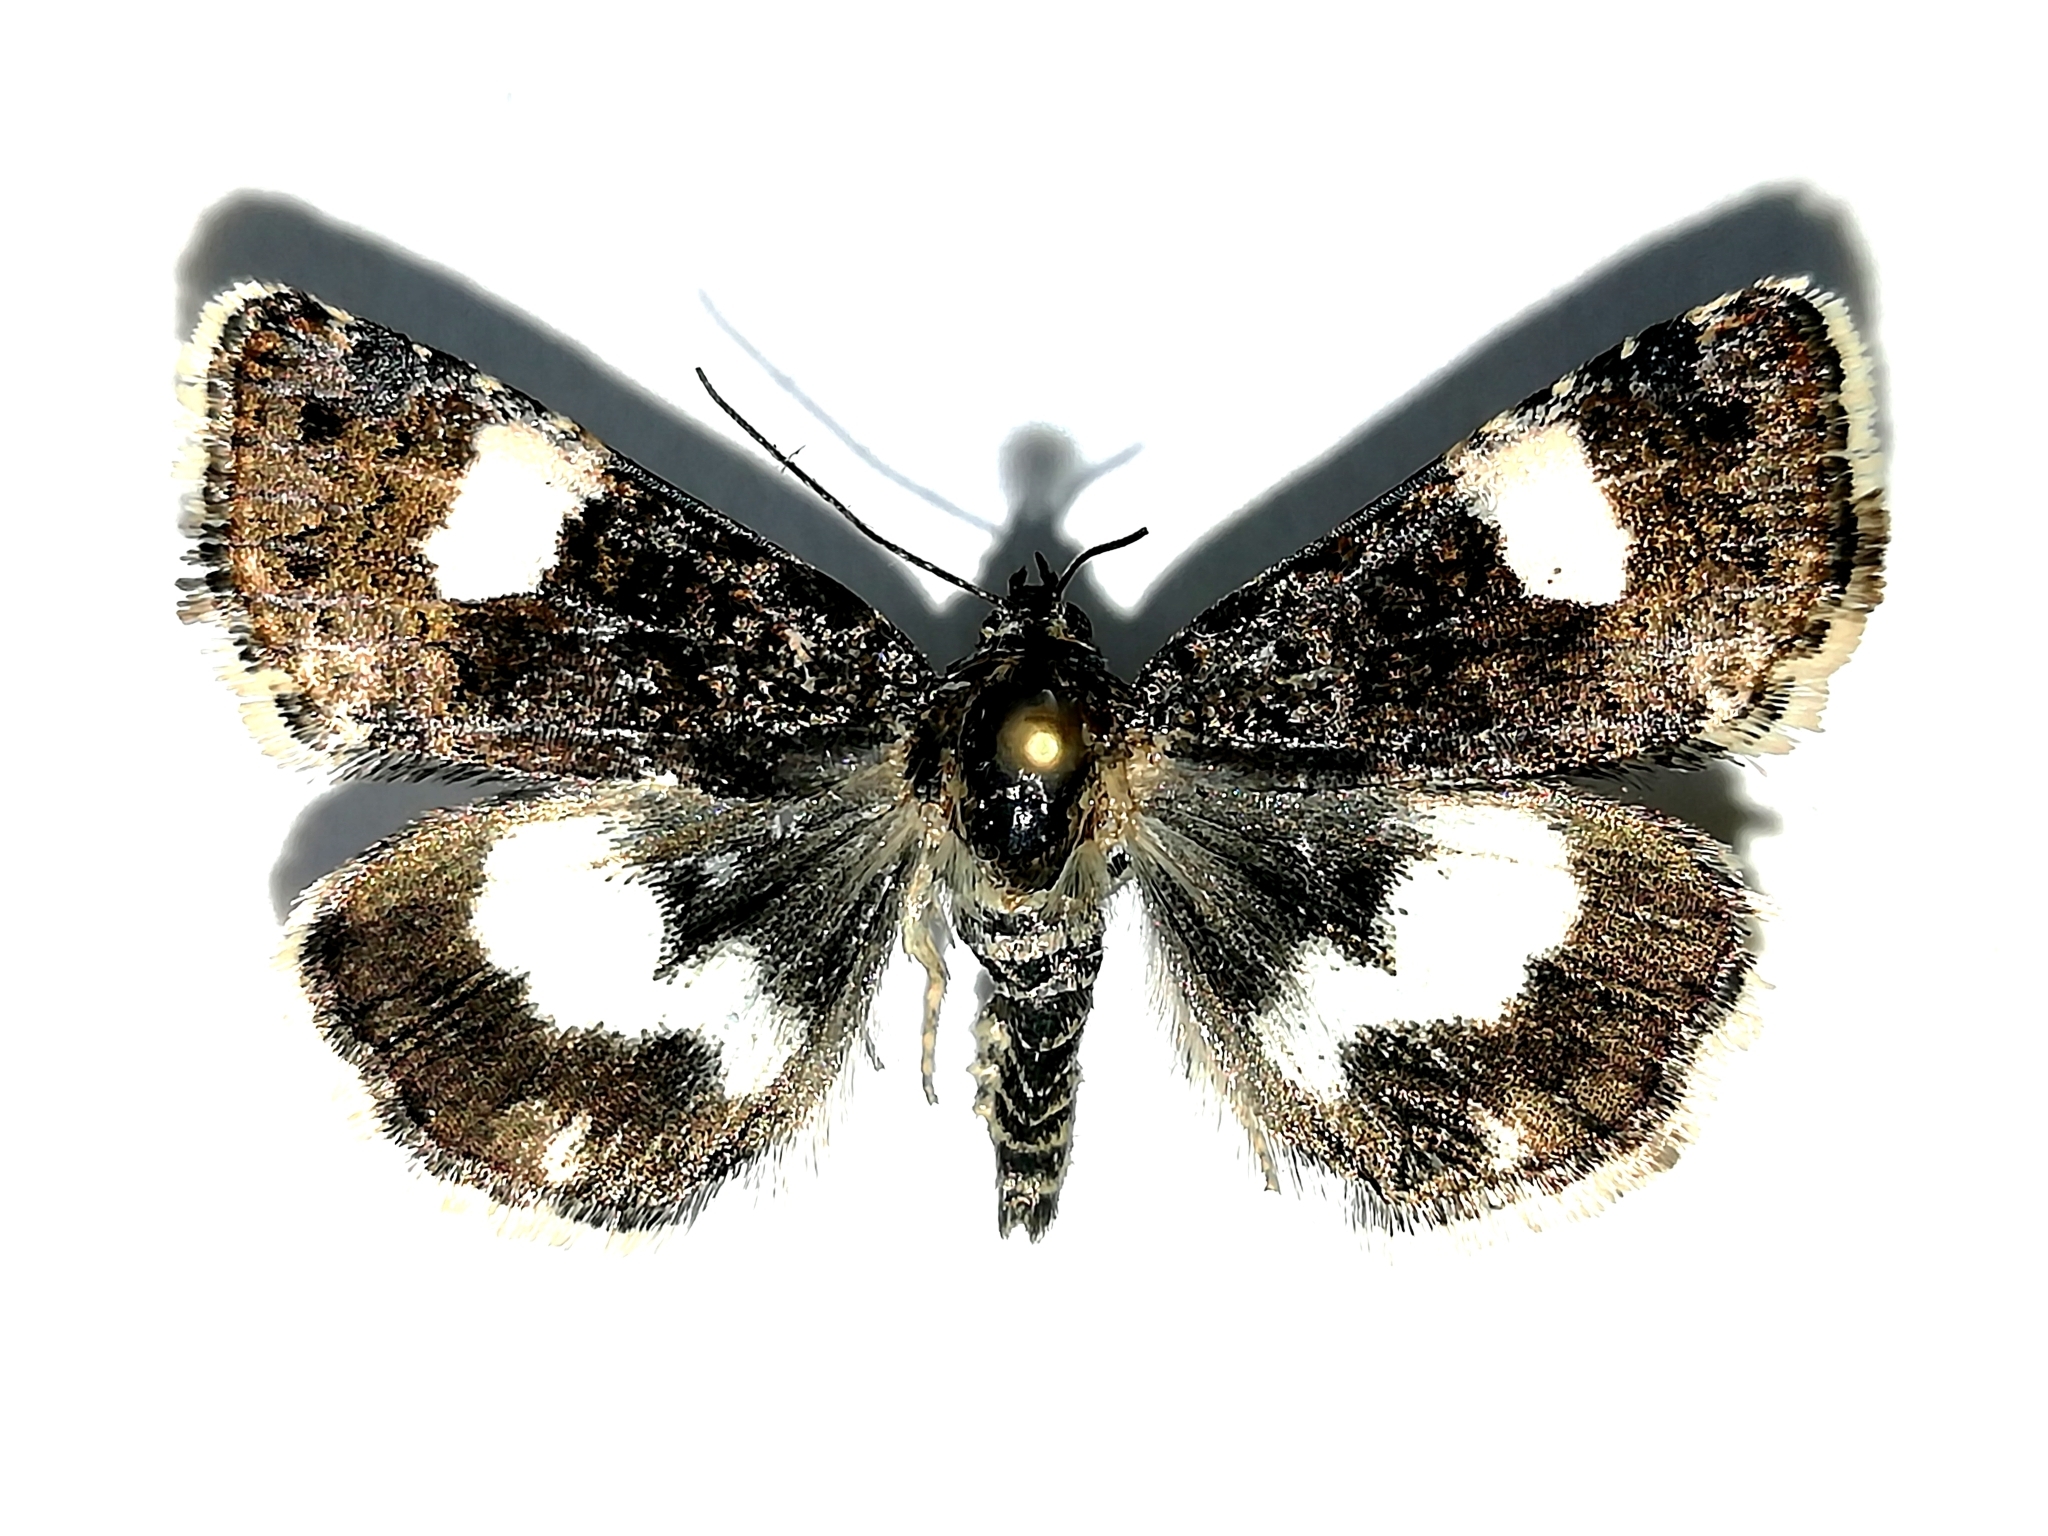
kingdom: Animalia
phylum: Arthropoda
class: Insecta
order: Lepidoptera
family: Erebidae
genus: Tyta
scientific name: Tyta luctuosa
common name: Four-spotted
